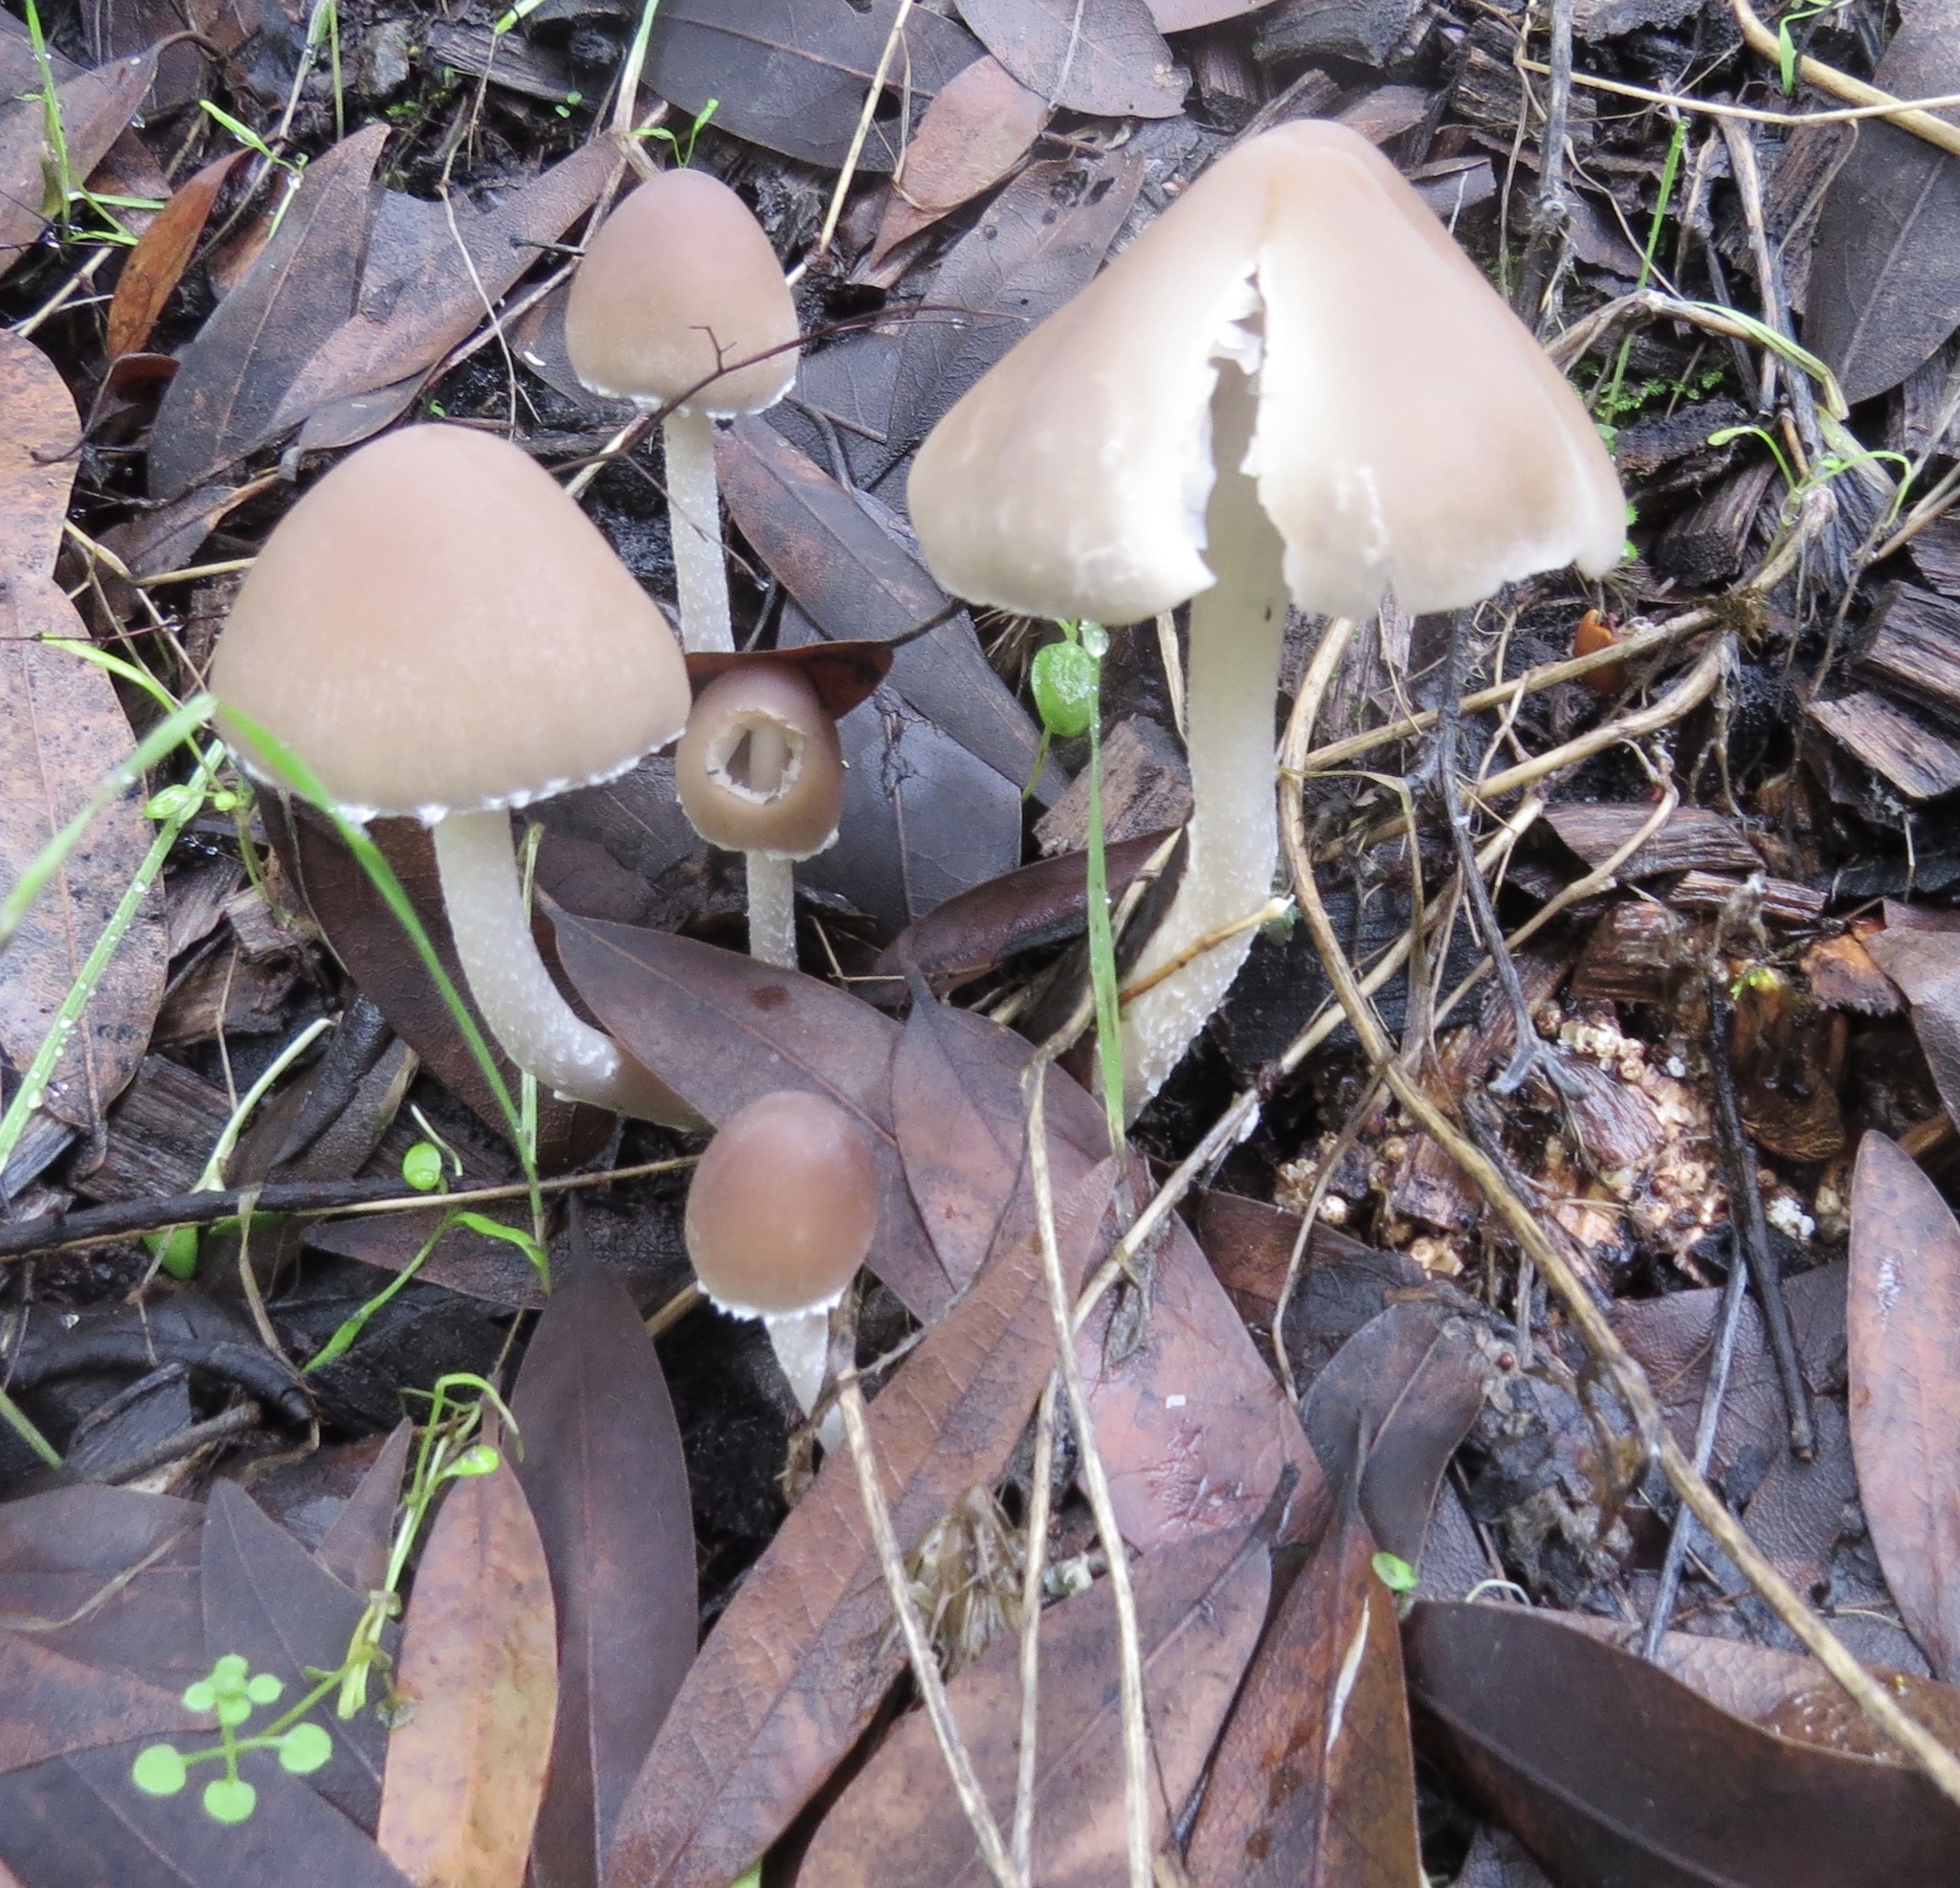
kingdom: Fungi
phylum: Basidiomycota
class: Agaricomycetes
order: Agaricales
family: Psathyrellaceae
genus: Psathyrella
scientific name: Psathyrella longipes
